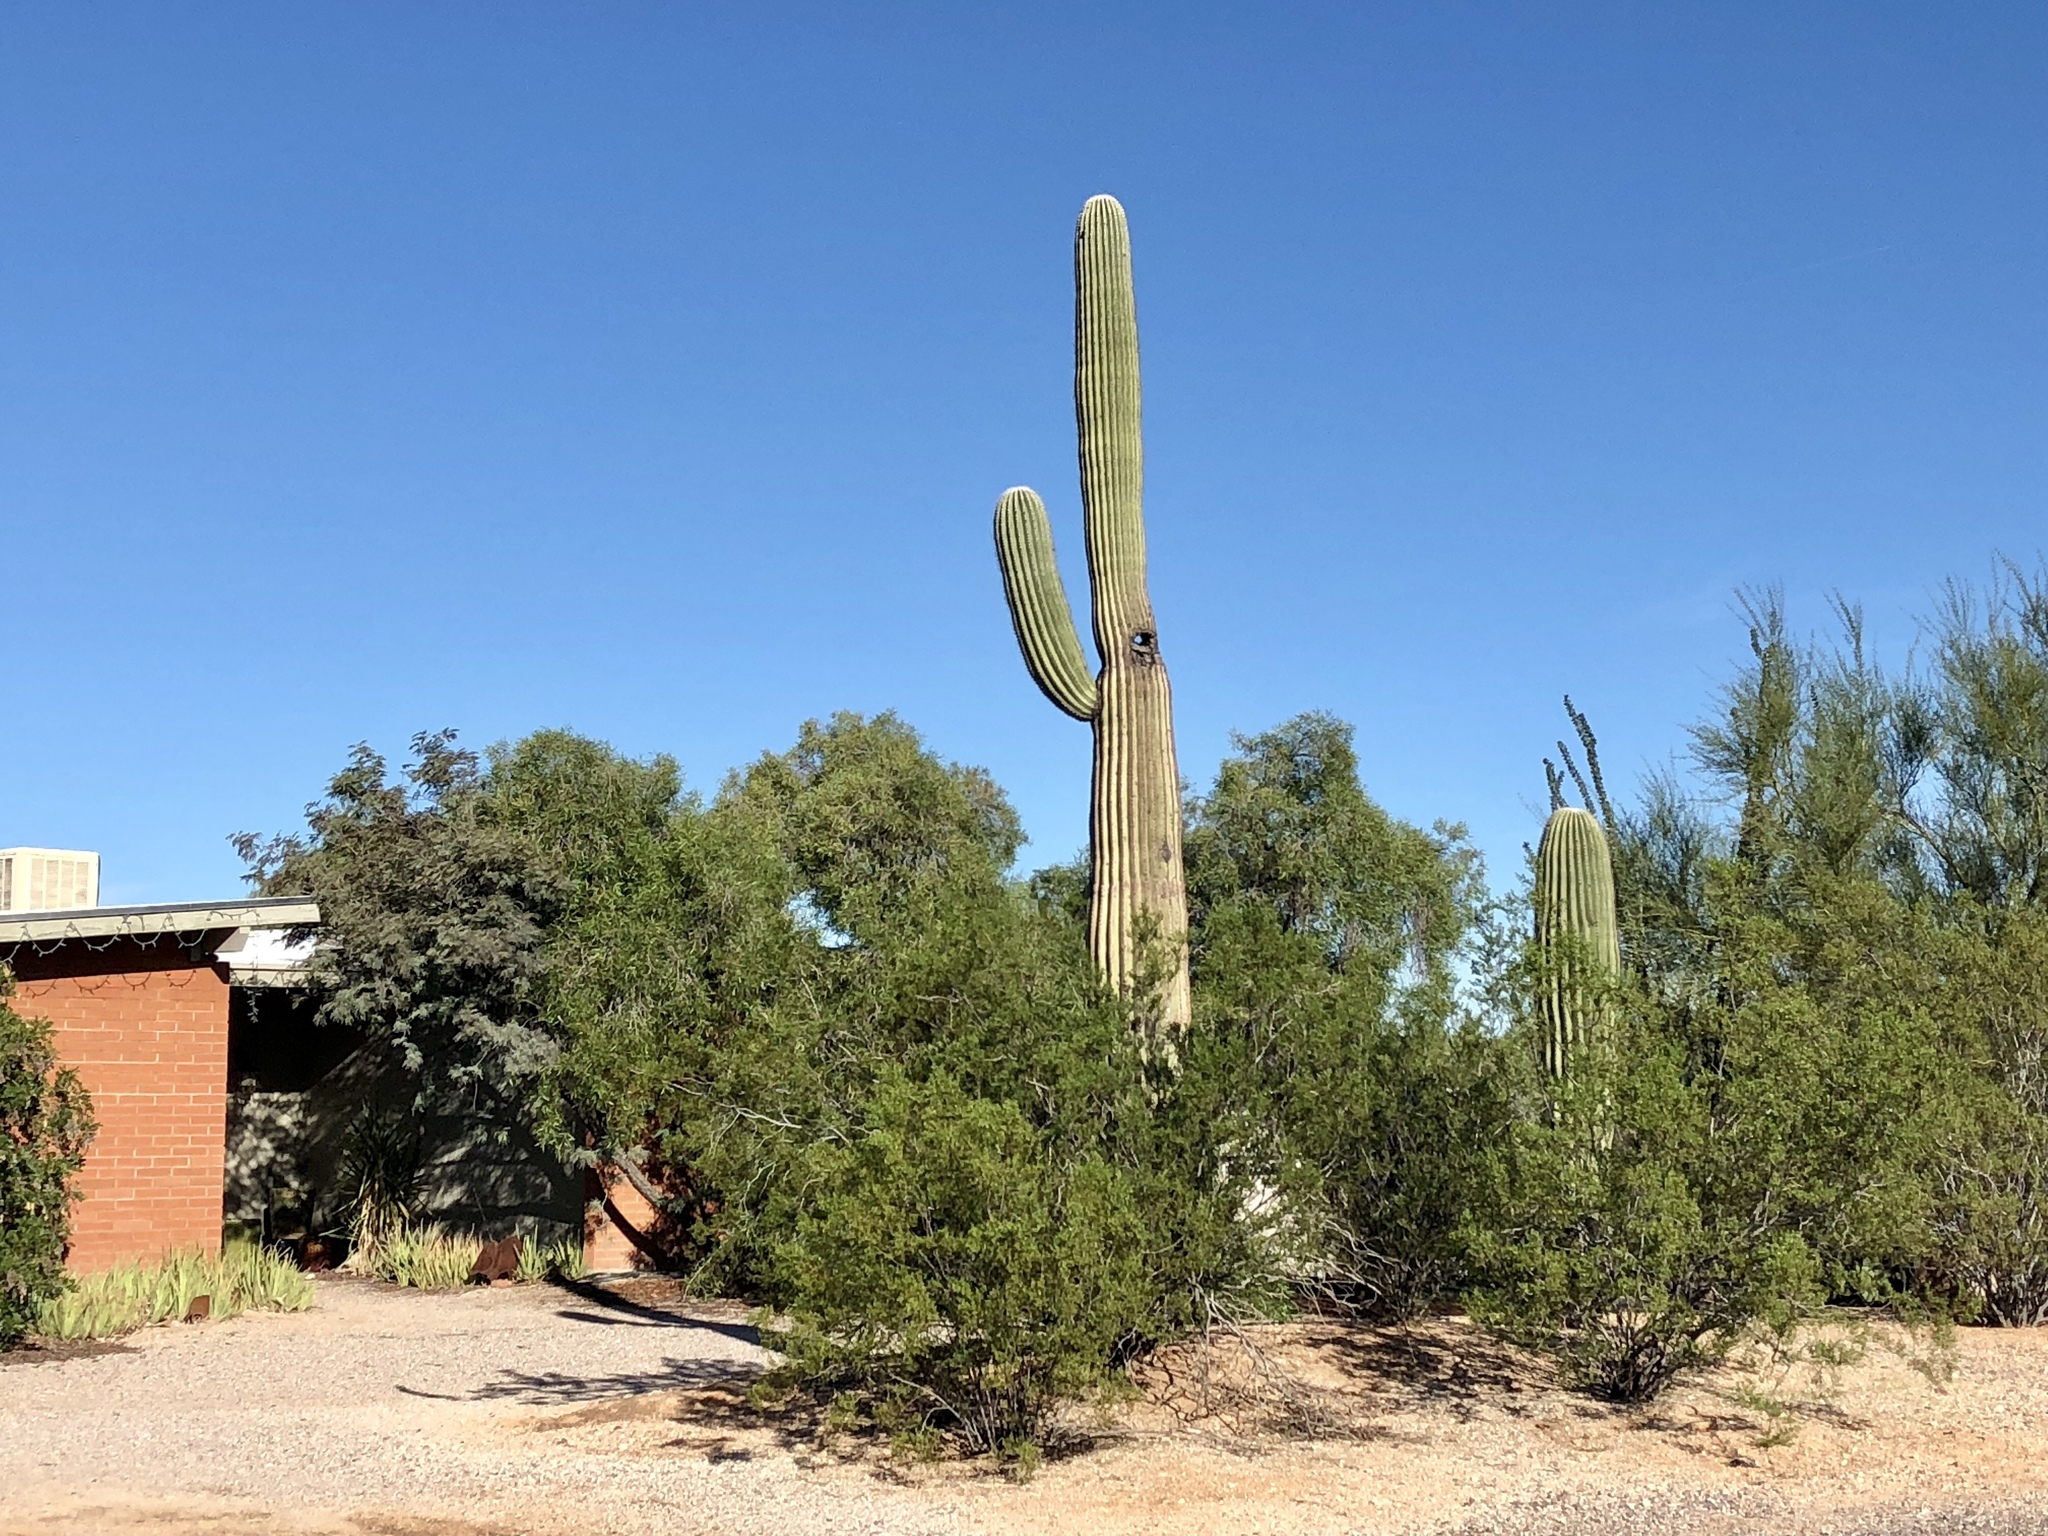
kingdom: Plantae
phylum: Tracheophyta
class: Magnoliopsida
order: Caryophyllales
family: Cactaceae
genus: Carnegiea
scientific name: Carnegiea gigantea
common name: Saguaro
